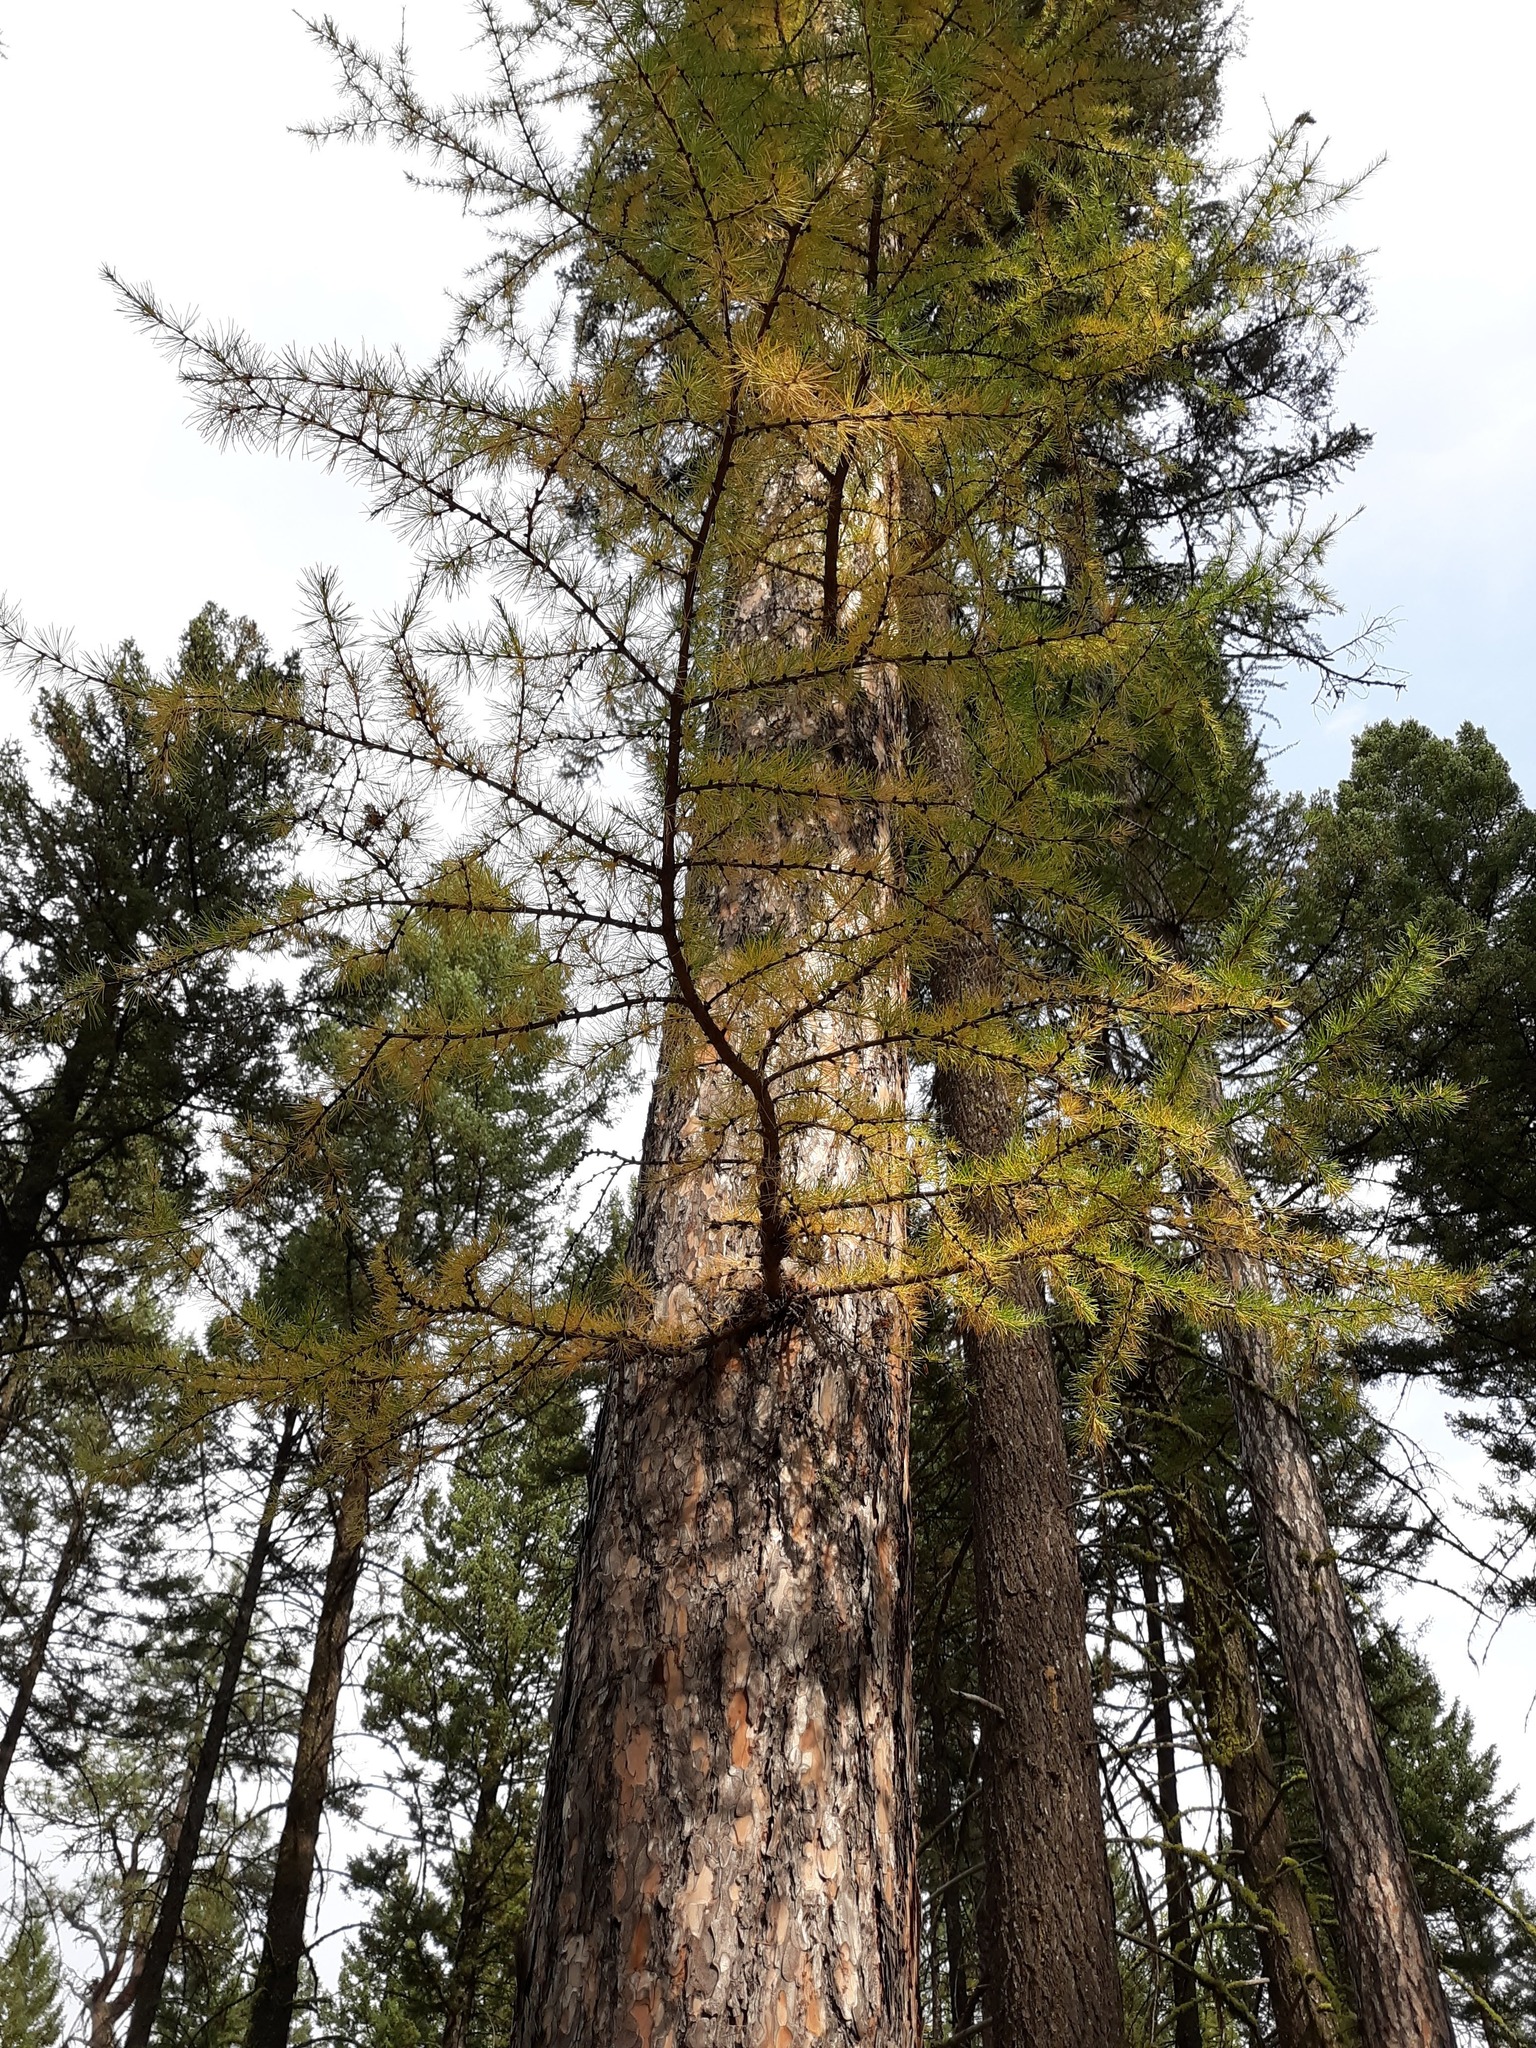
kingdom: Plantae
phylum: Tracheophyta
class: Pinopsida
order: Pinales
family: Pinaceae
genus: Larix
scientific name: Larix occidentalis
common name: Western larch
